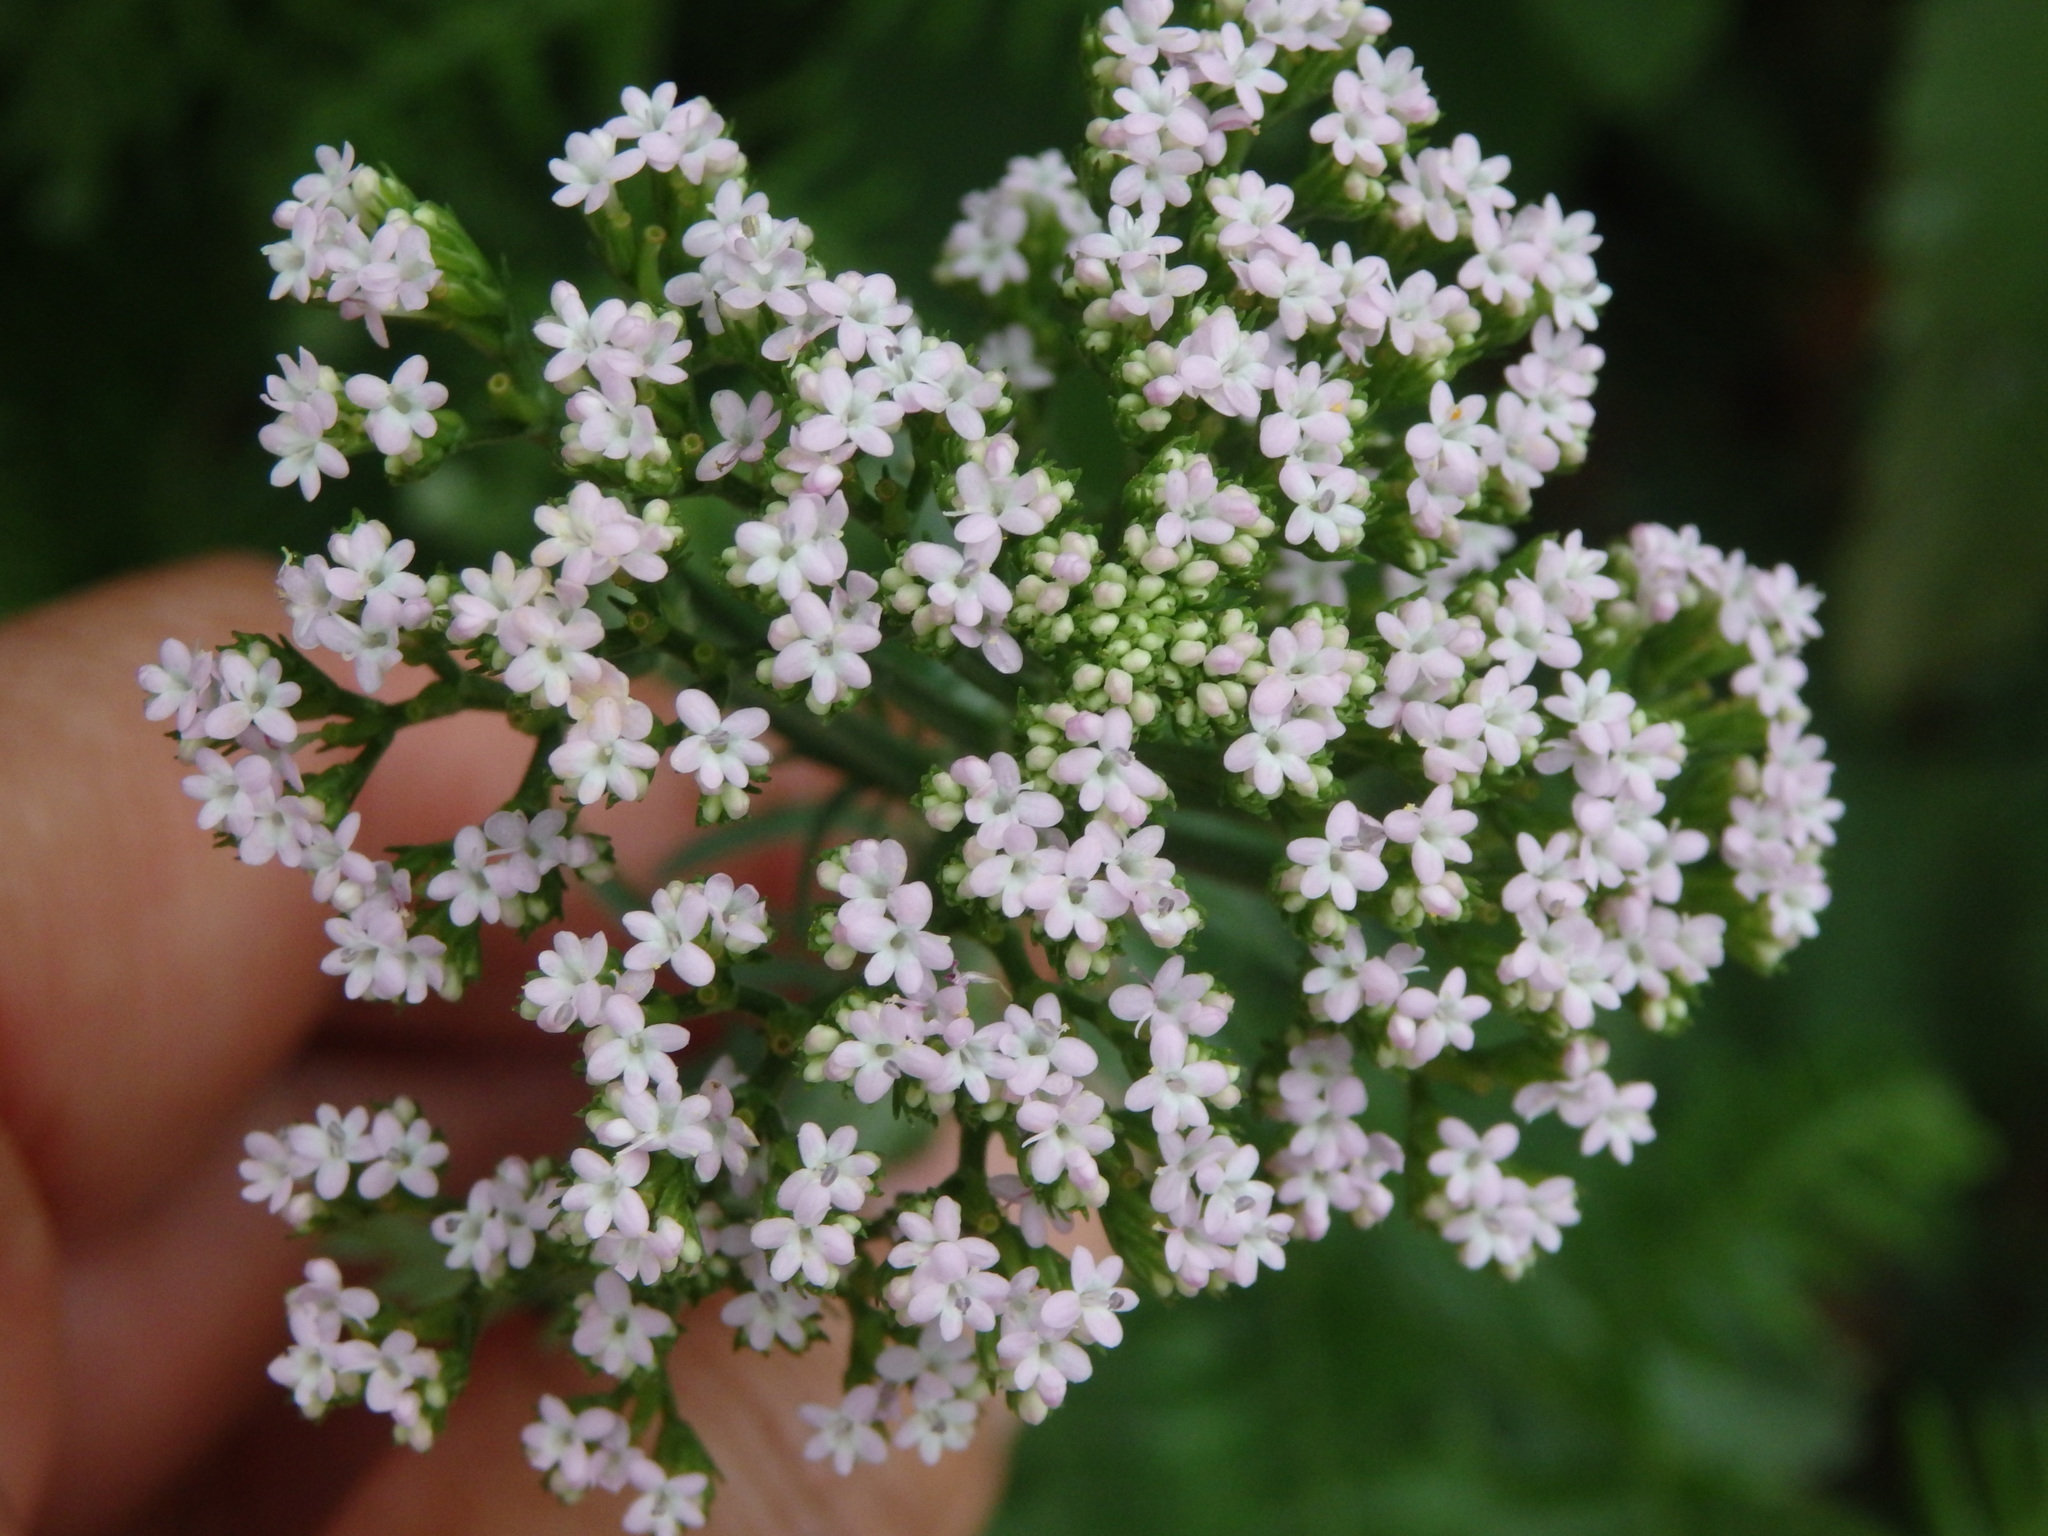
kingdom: Plantae
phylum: Tracheophyta
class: Magnoliopsida
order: Dipsacales
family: Caprifoliaceae
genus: Centranthus
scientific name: Centranthus calcitrapae
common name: Annual valerian
